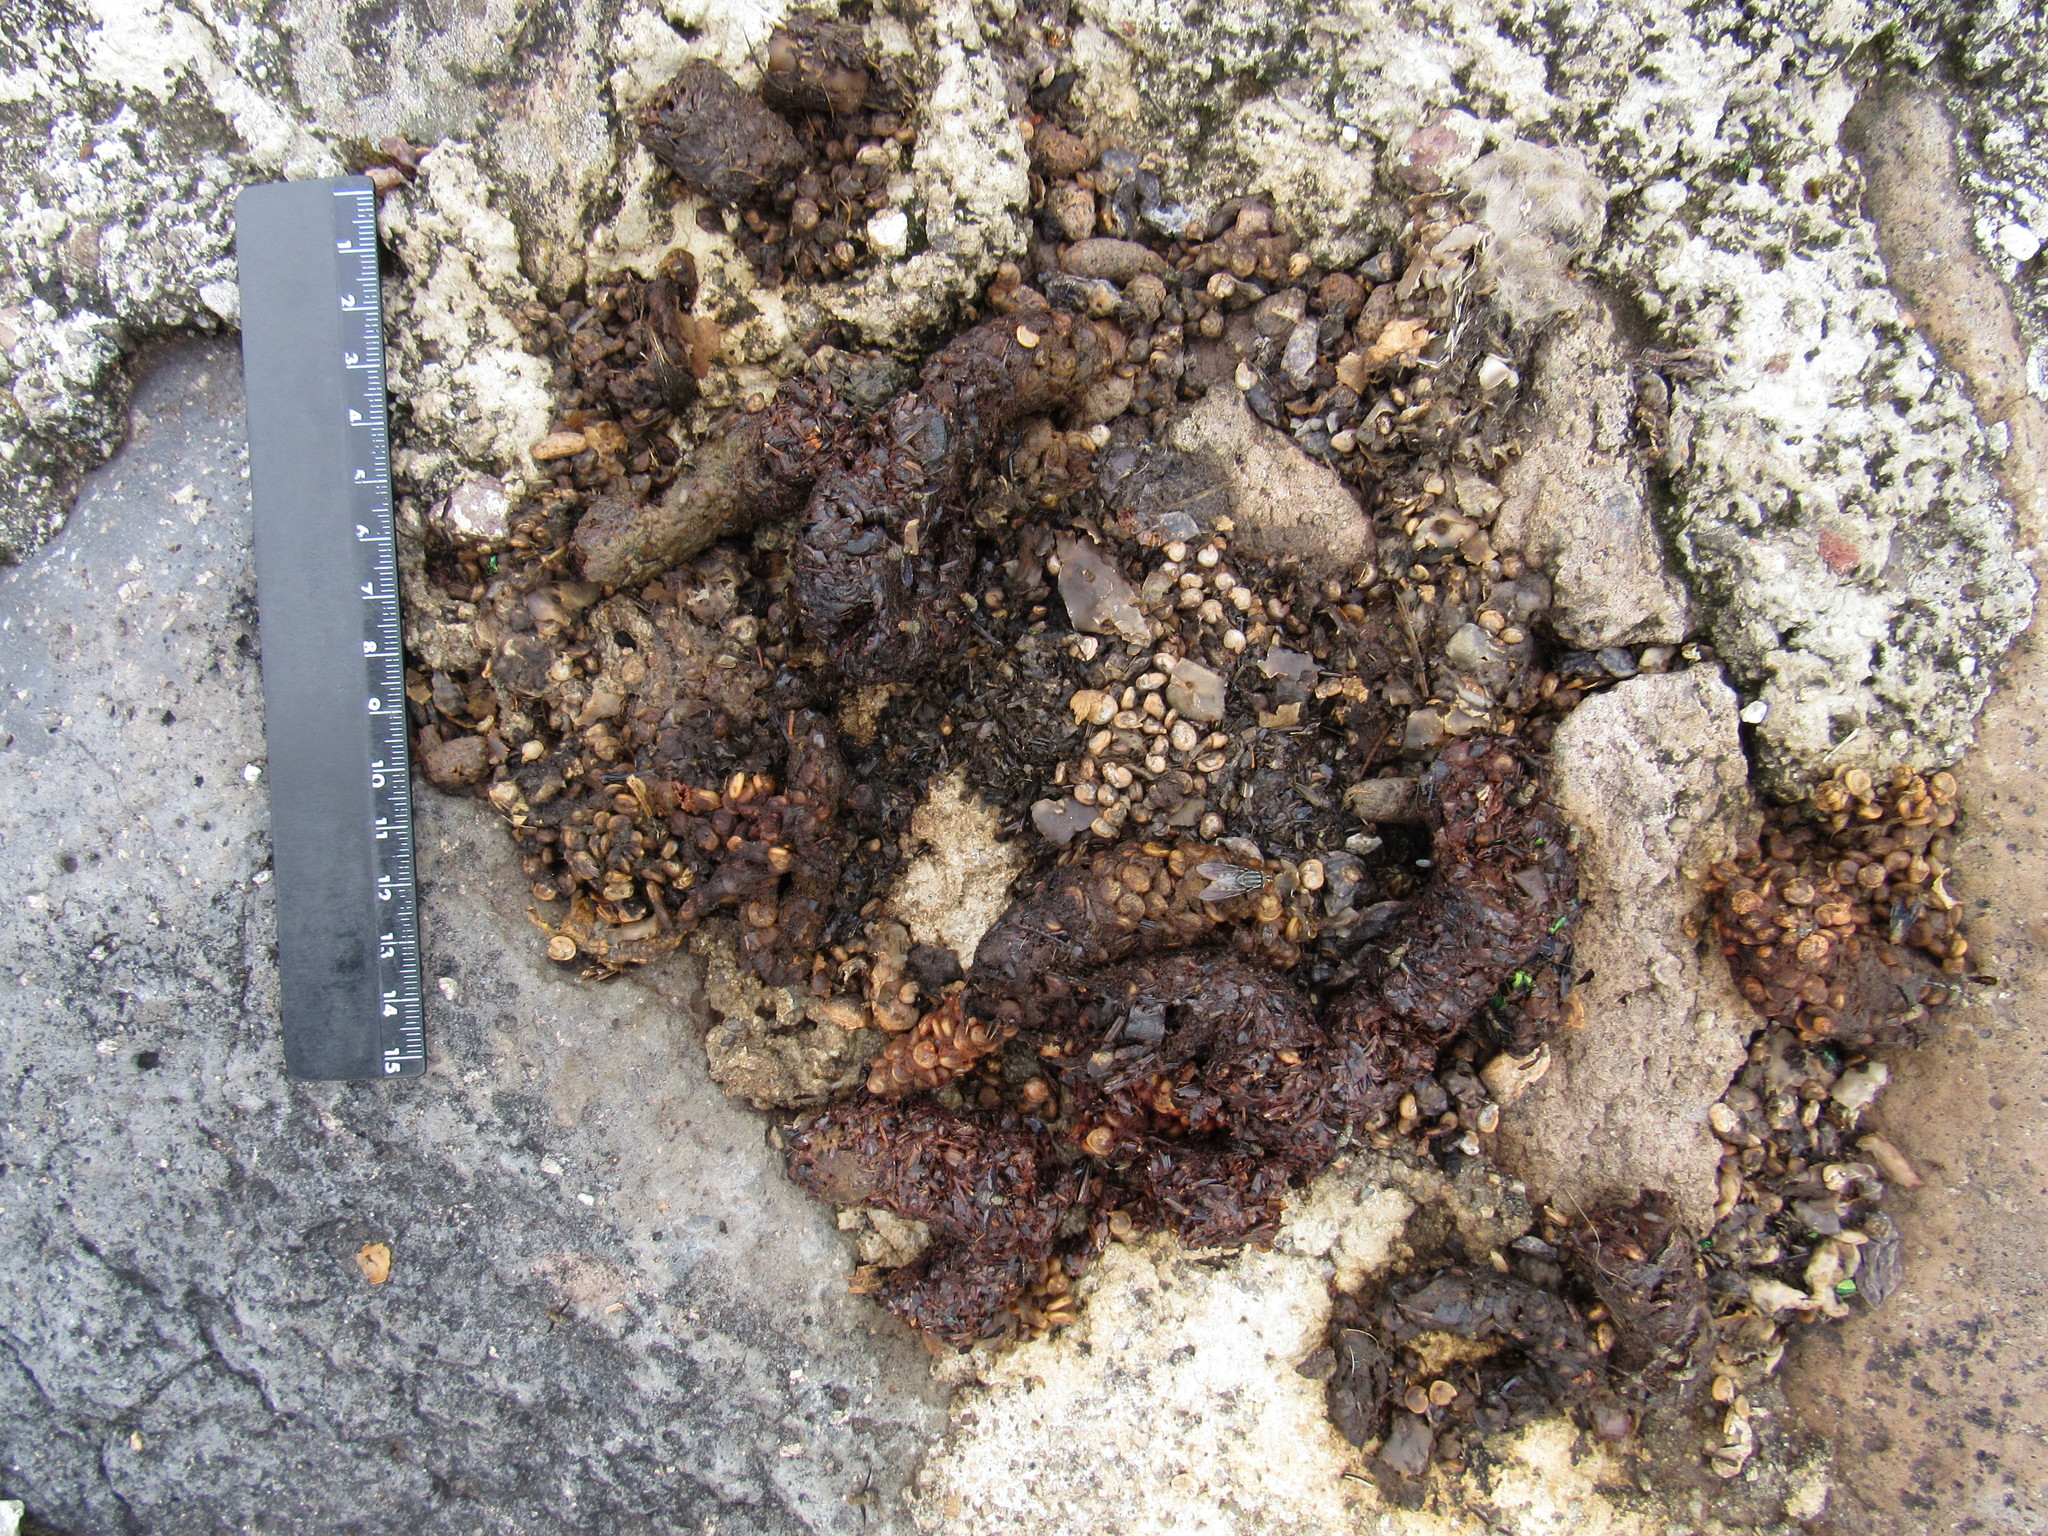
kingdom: Animalia
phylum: Chordata
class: Mammalia
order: Carnivora
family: Canidae
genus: Urocyon
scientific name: Urocyon cinereoargenteus
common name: Gray fox
